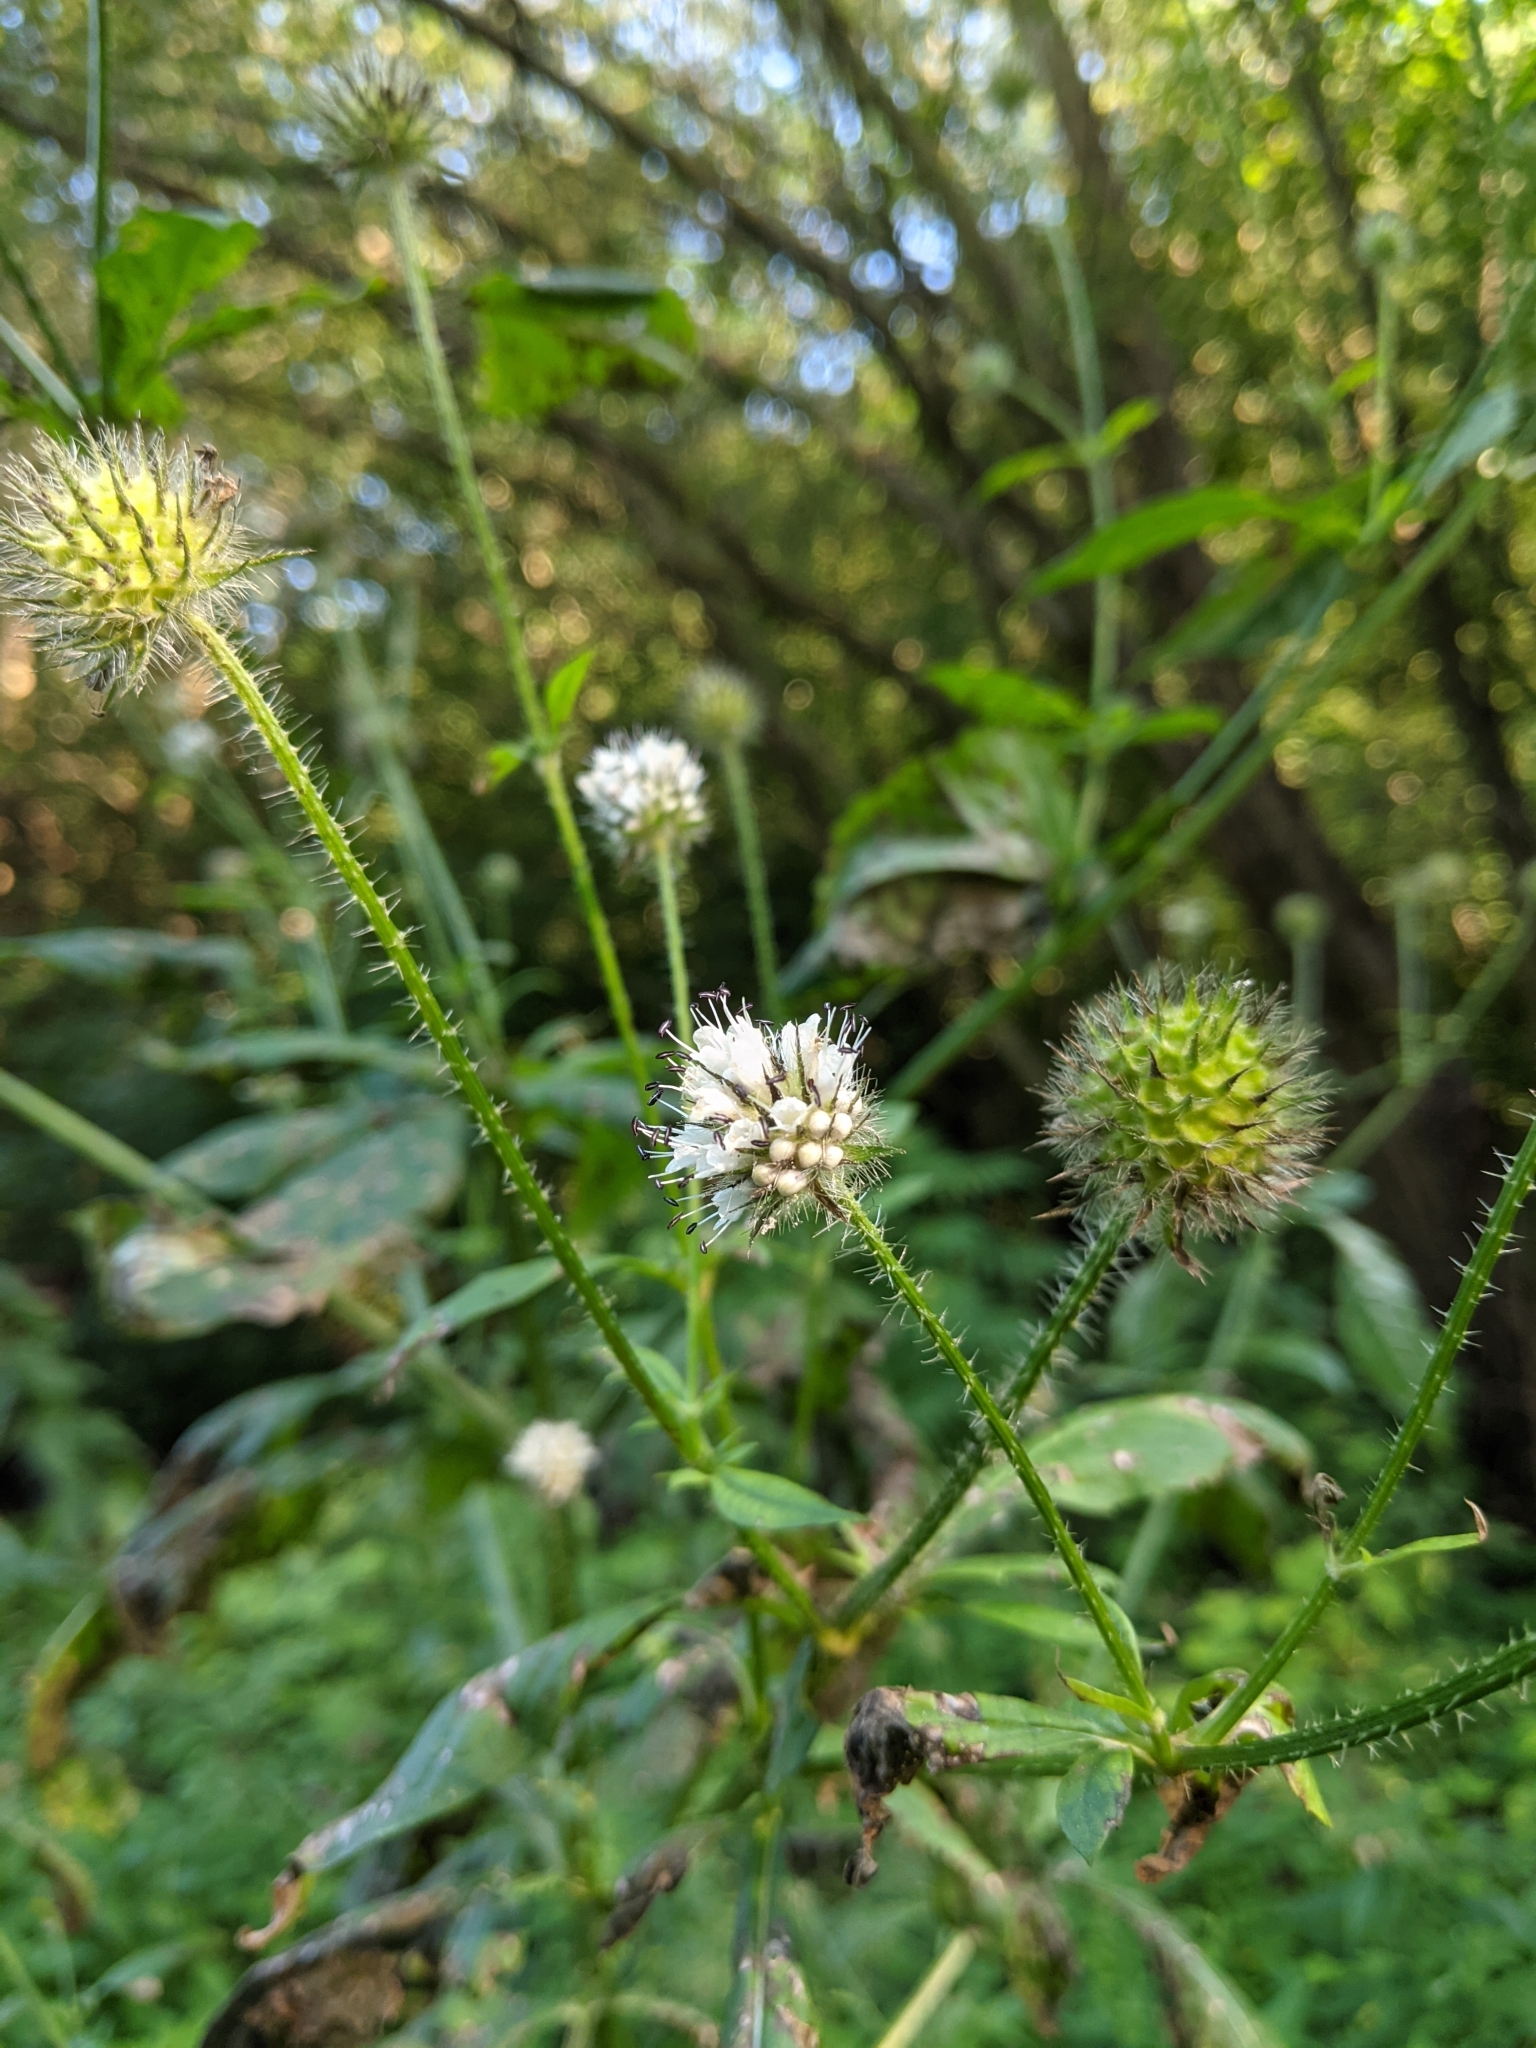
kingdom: Plantae
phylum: Tracheophyta
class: Magnoliopsida
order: Dipsacales
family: Caprifoliaceae
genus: Dipsacus
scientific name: Dipsacus pilosus
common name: Small teasel
